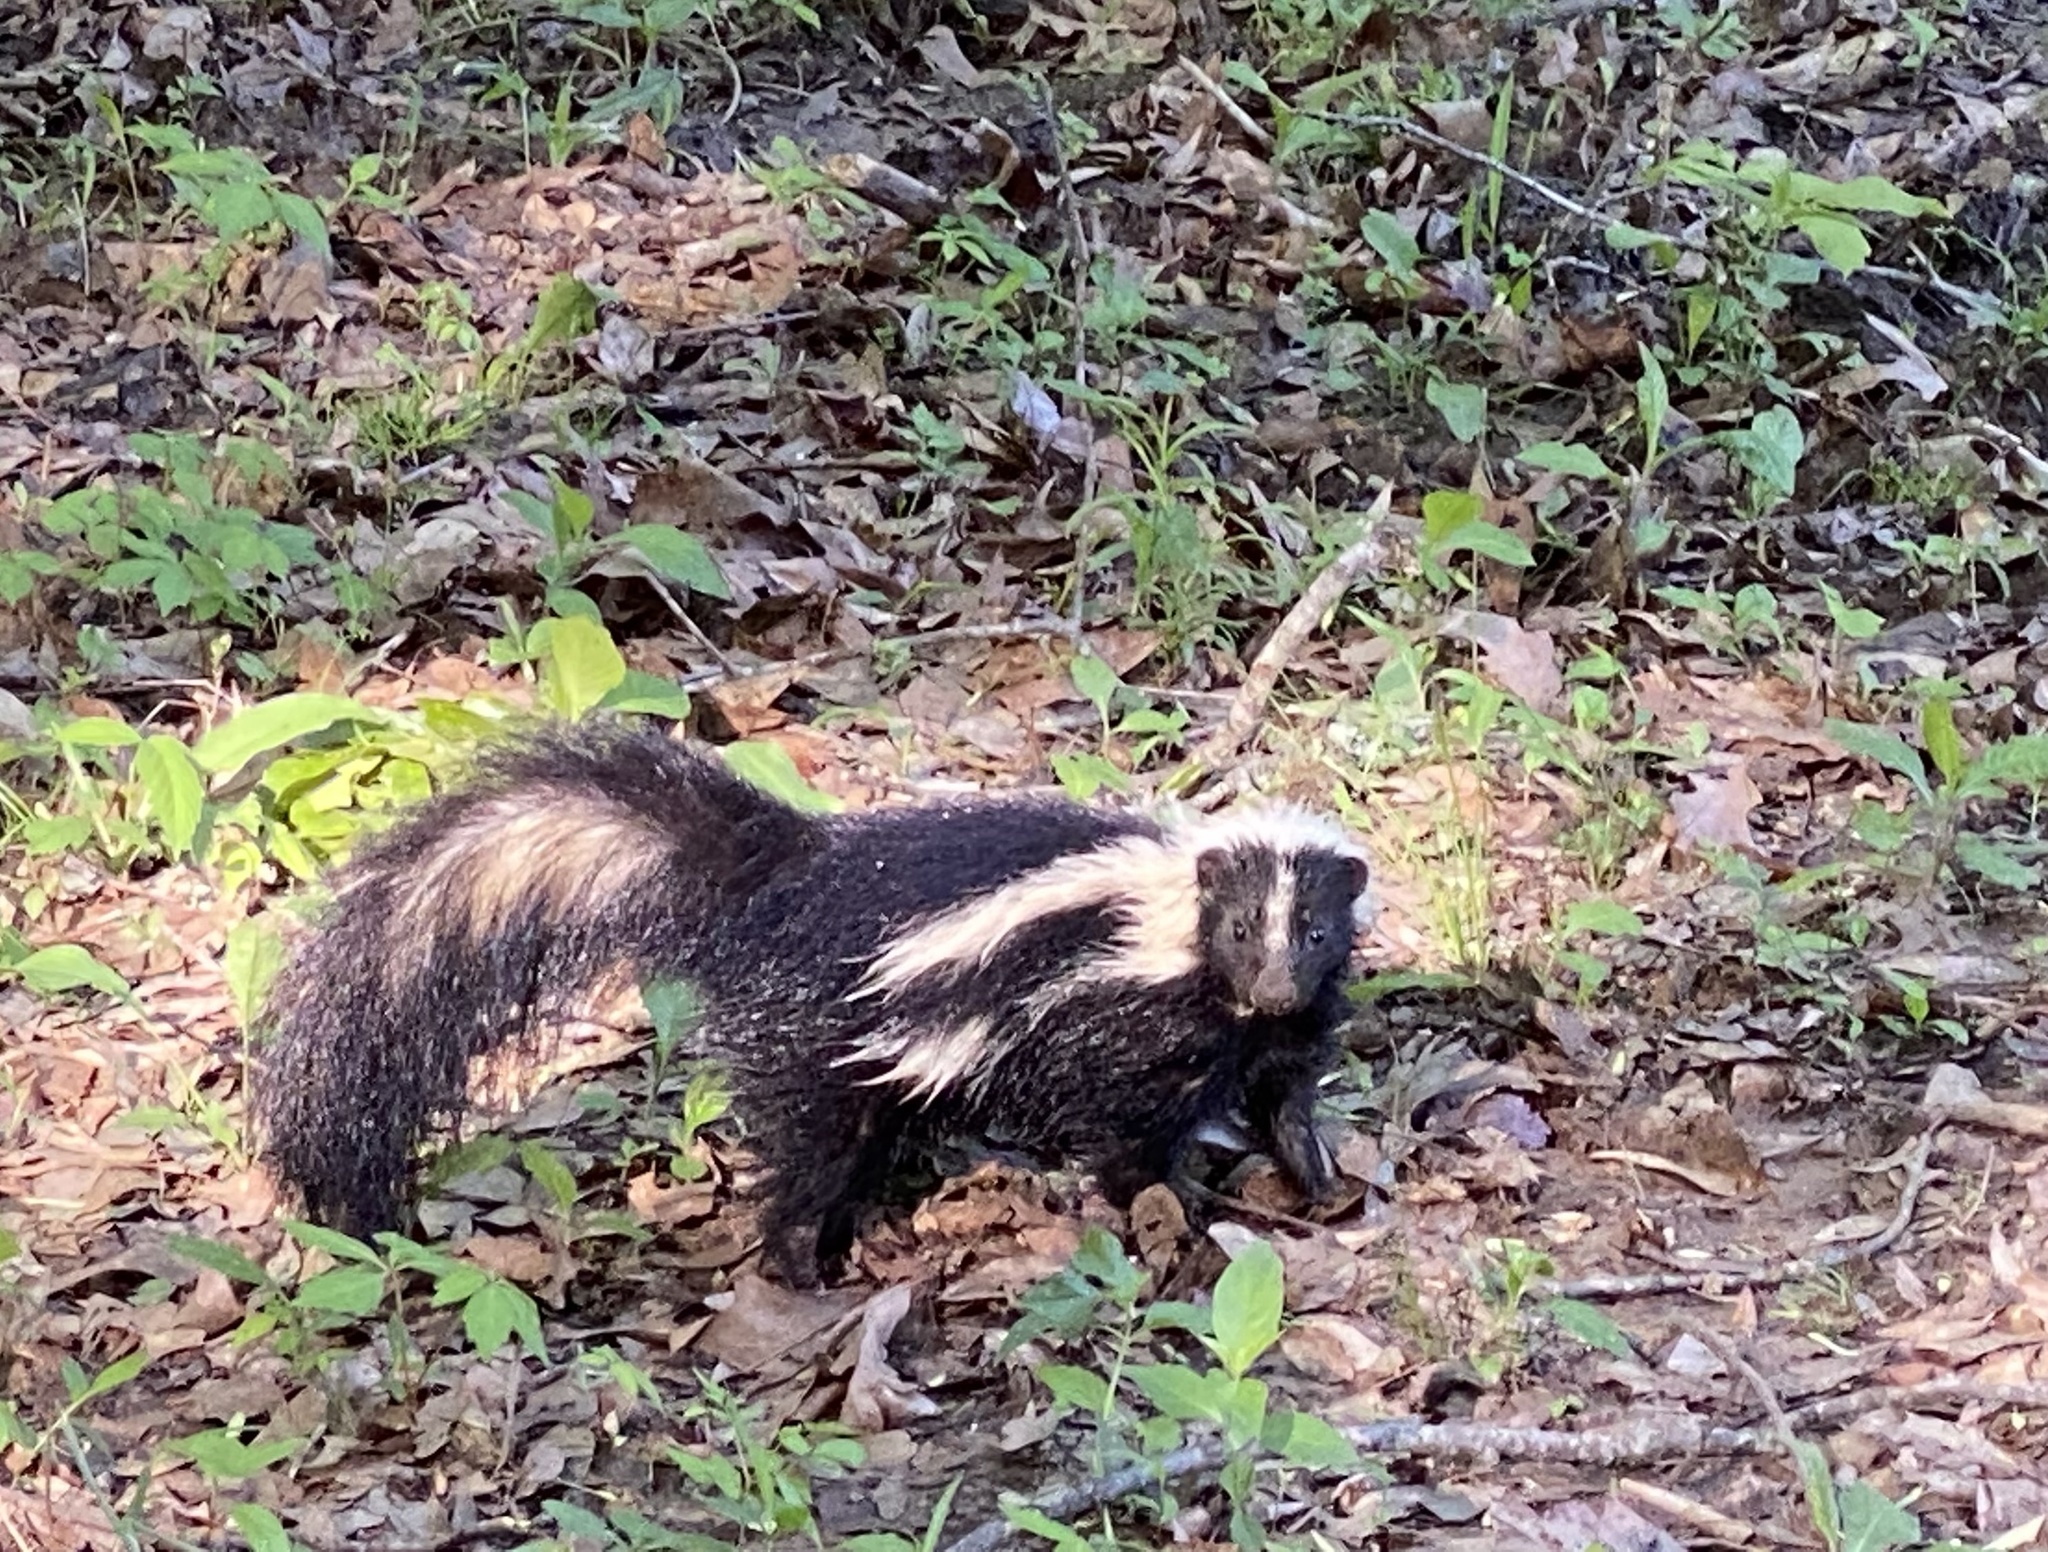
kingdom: Animalia
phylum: Chordata
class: Mammalia
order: Carnivora
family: Mephitidae
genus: Mephitis
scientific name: Mephitis mephitis
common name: Striped skunk
